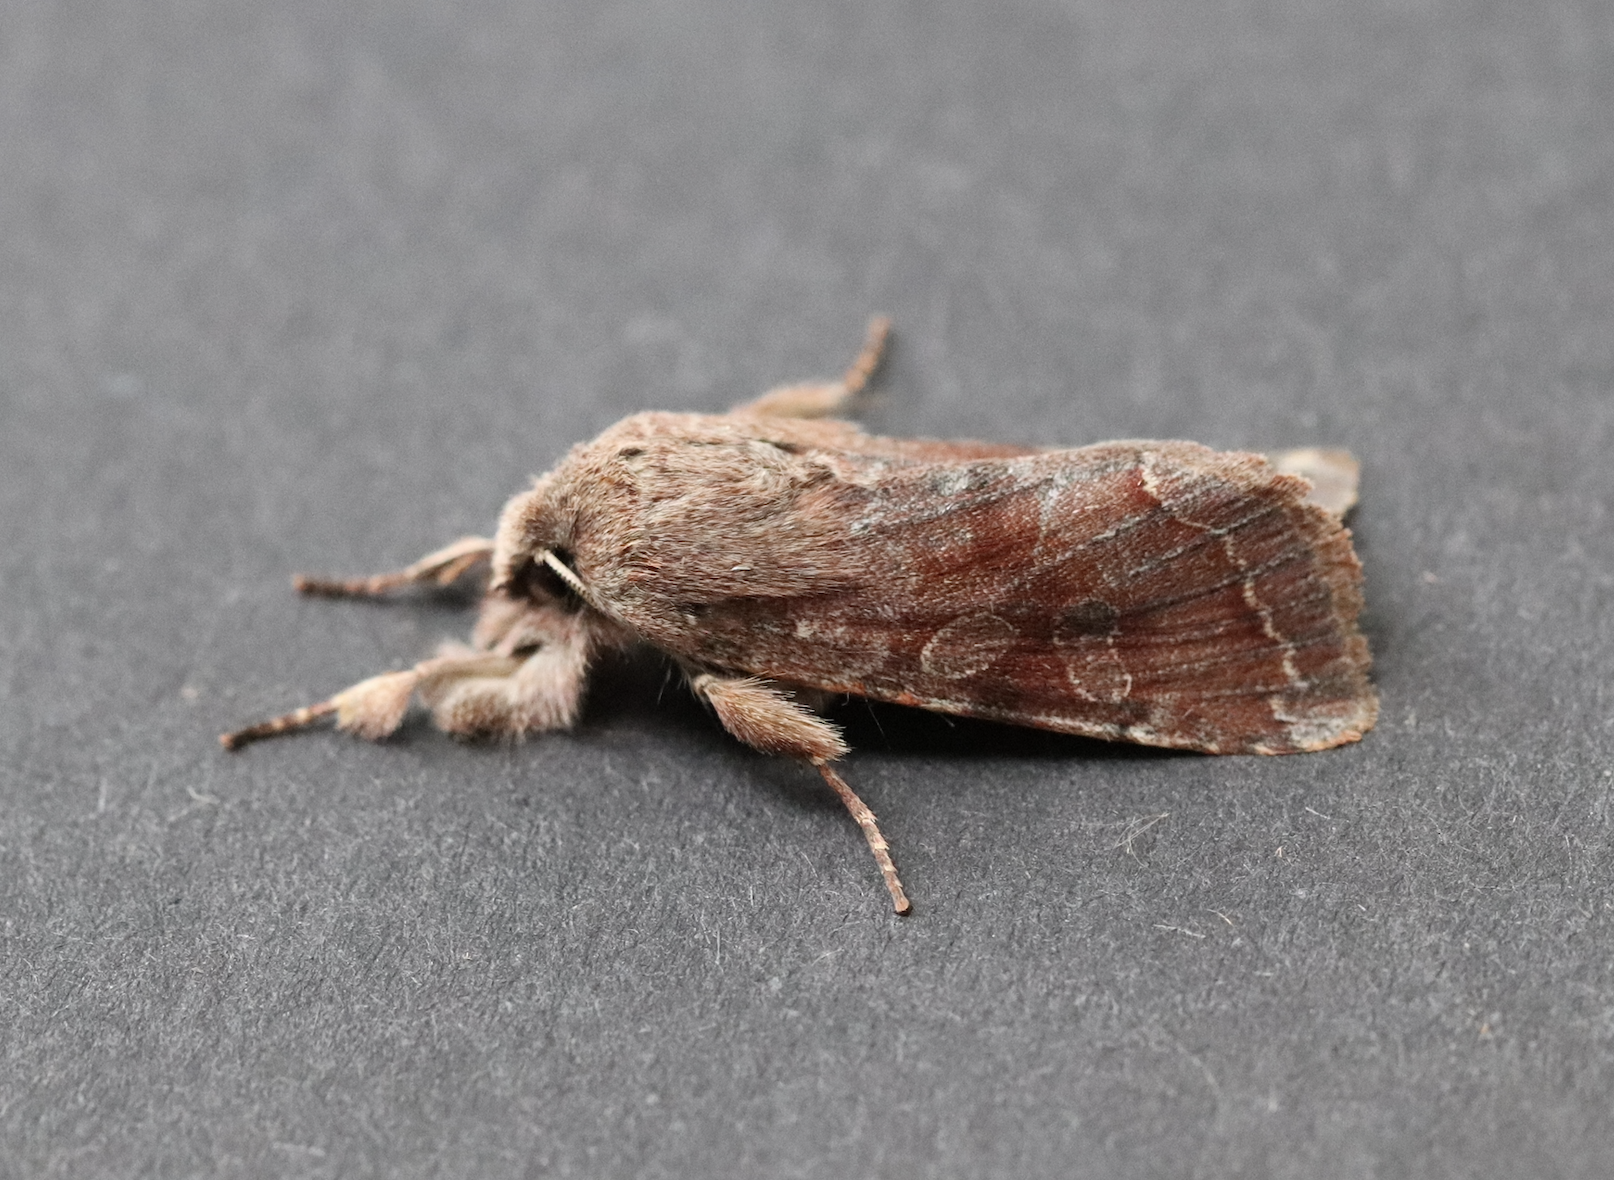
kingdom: Animalia
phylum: Arthropoda
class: Insecta
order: Lepidoptera
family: Noctuidae
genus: Orthosia
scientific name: Orthosia incerta
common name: Clouded drab
